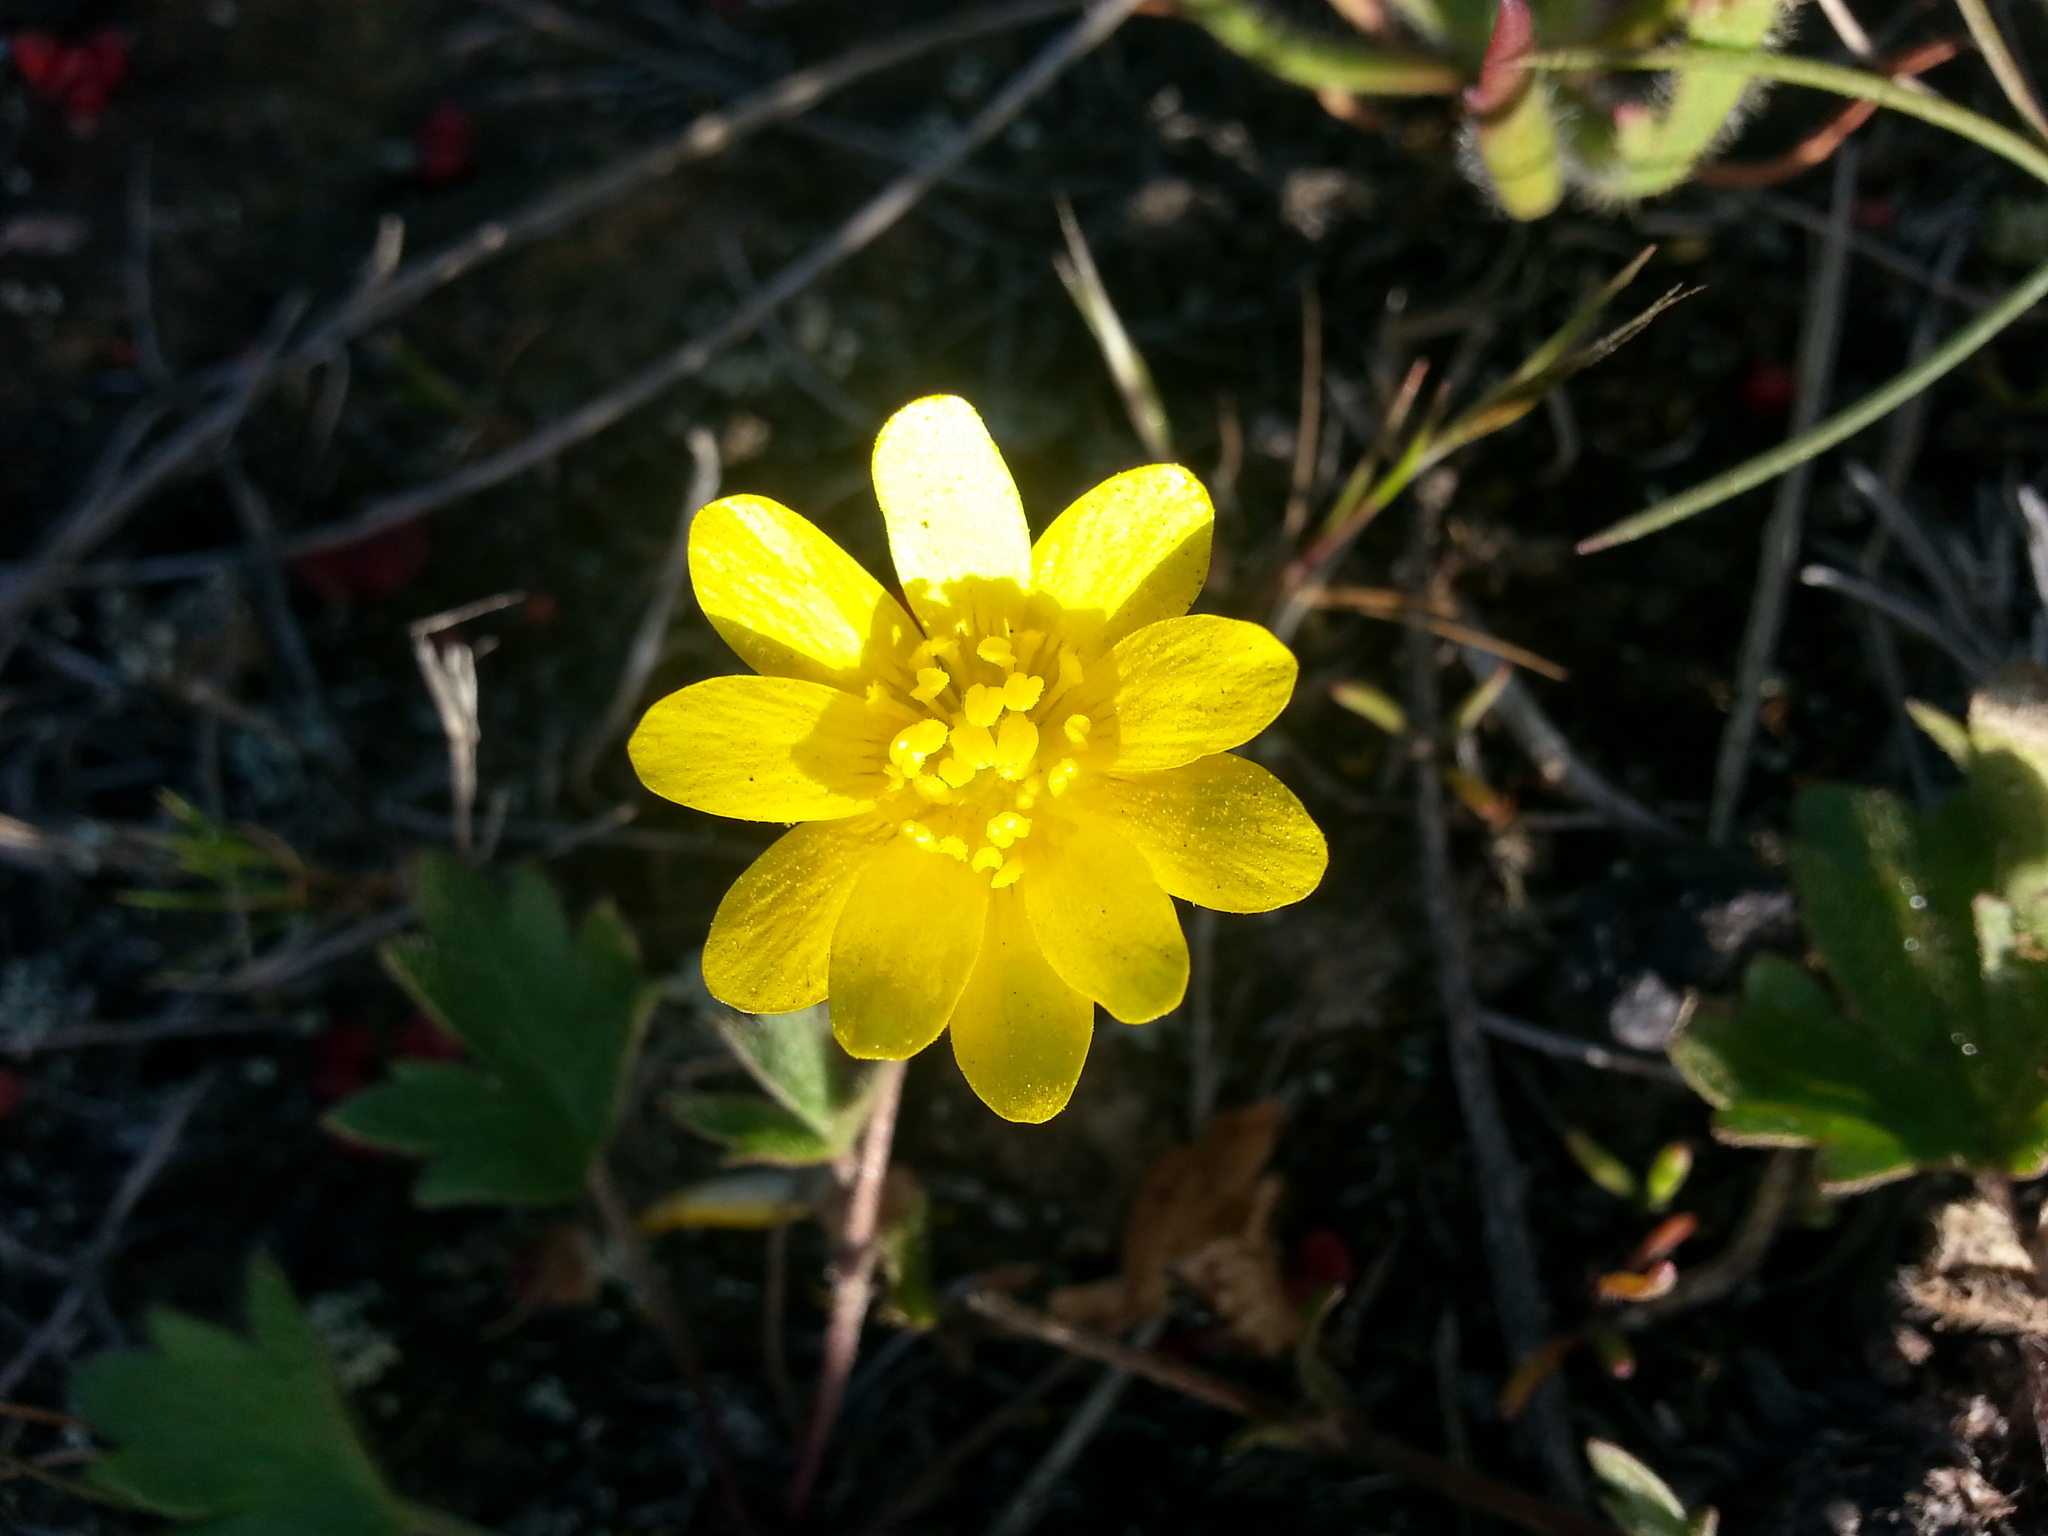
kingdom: Plantae
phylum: Tracheophyta
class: Magnoliopsida
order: Ranunculales
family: Ranunculaceae
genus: Ranunculus
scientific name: Ranunculus californicus
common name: California buttercup
